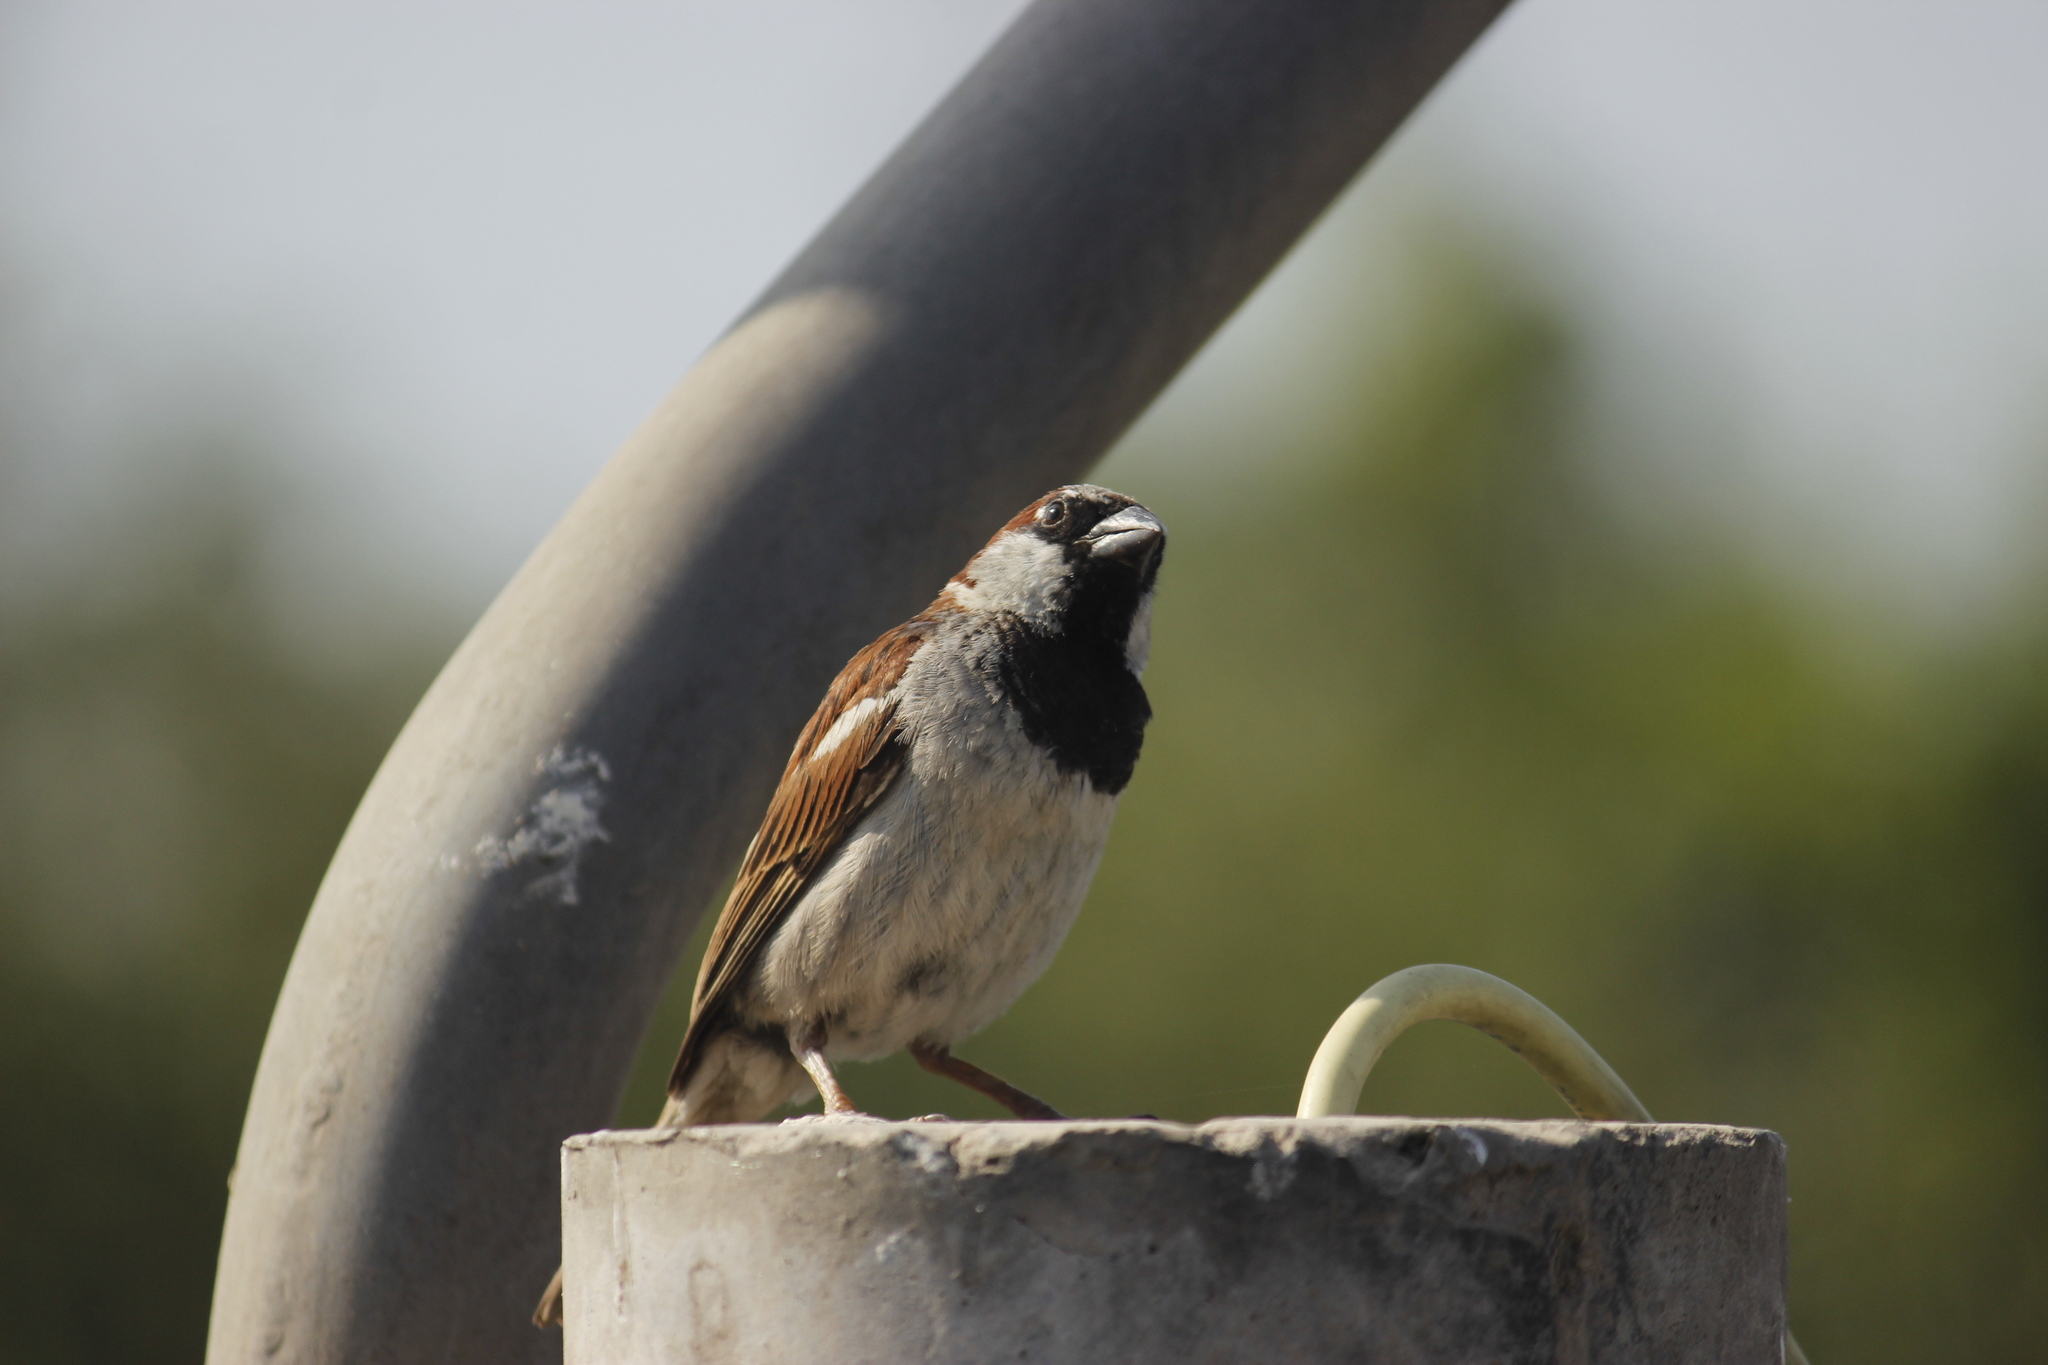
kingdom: Animalia
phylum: Chordata
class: Aves
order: Passeriformes
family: Passeridae
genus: Passer
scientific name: Passer domesticus
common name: House sparrow
